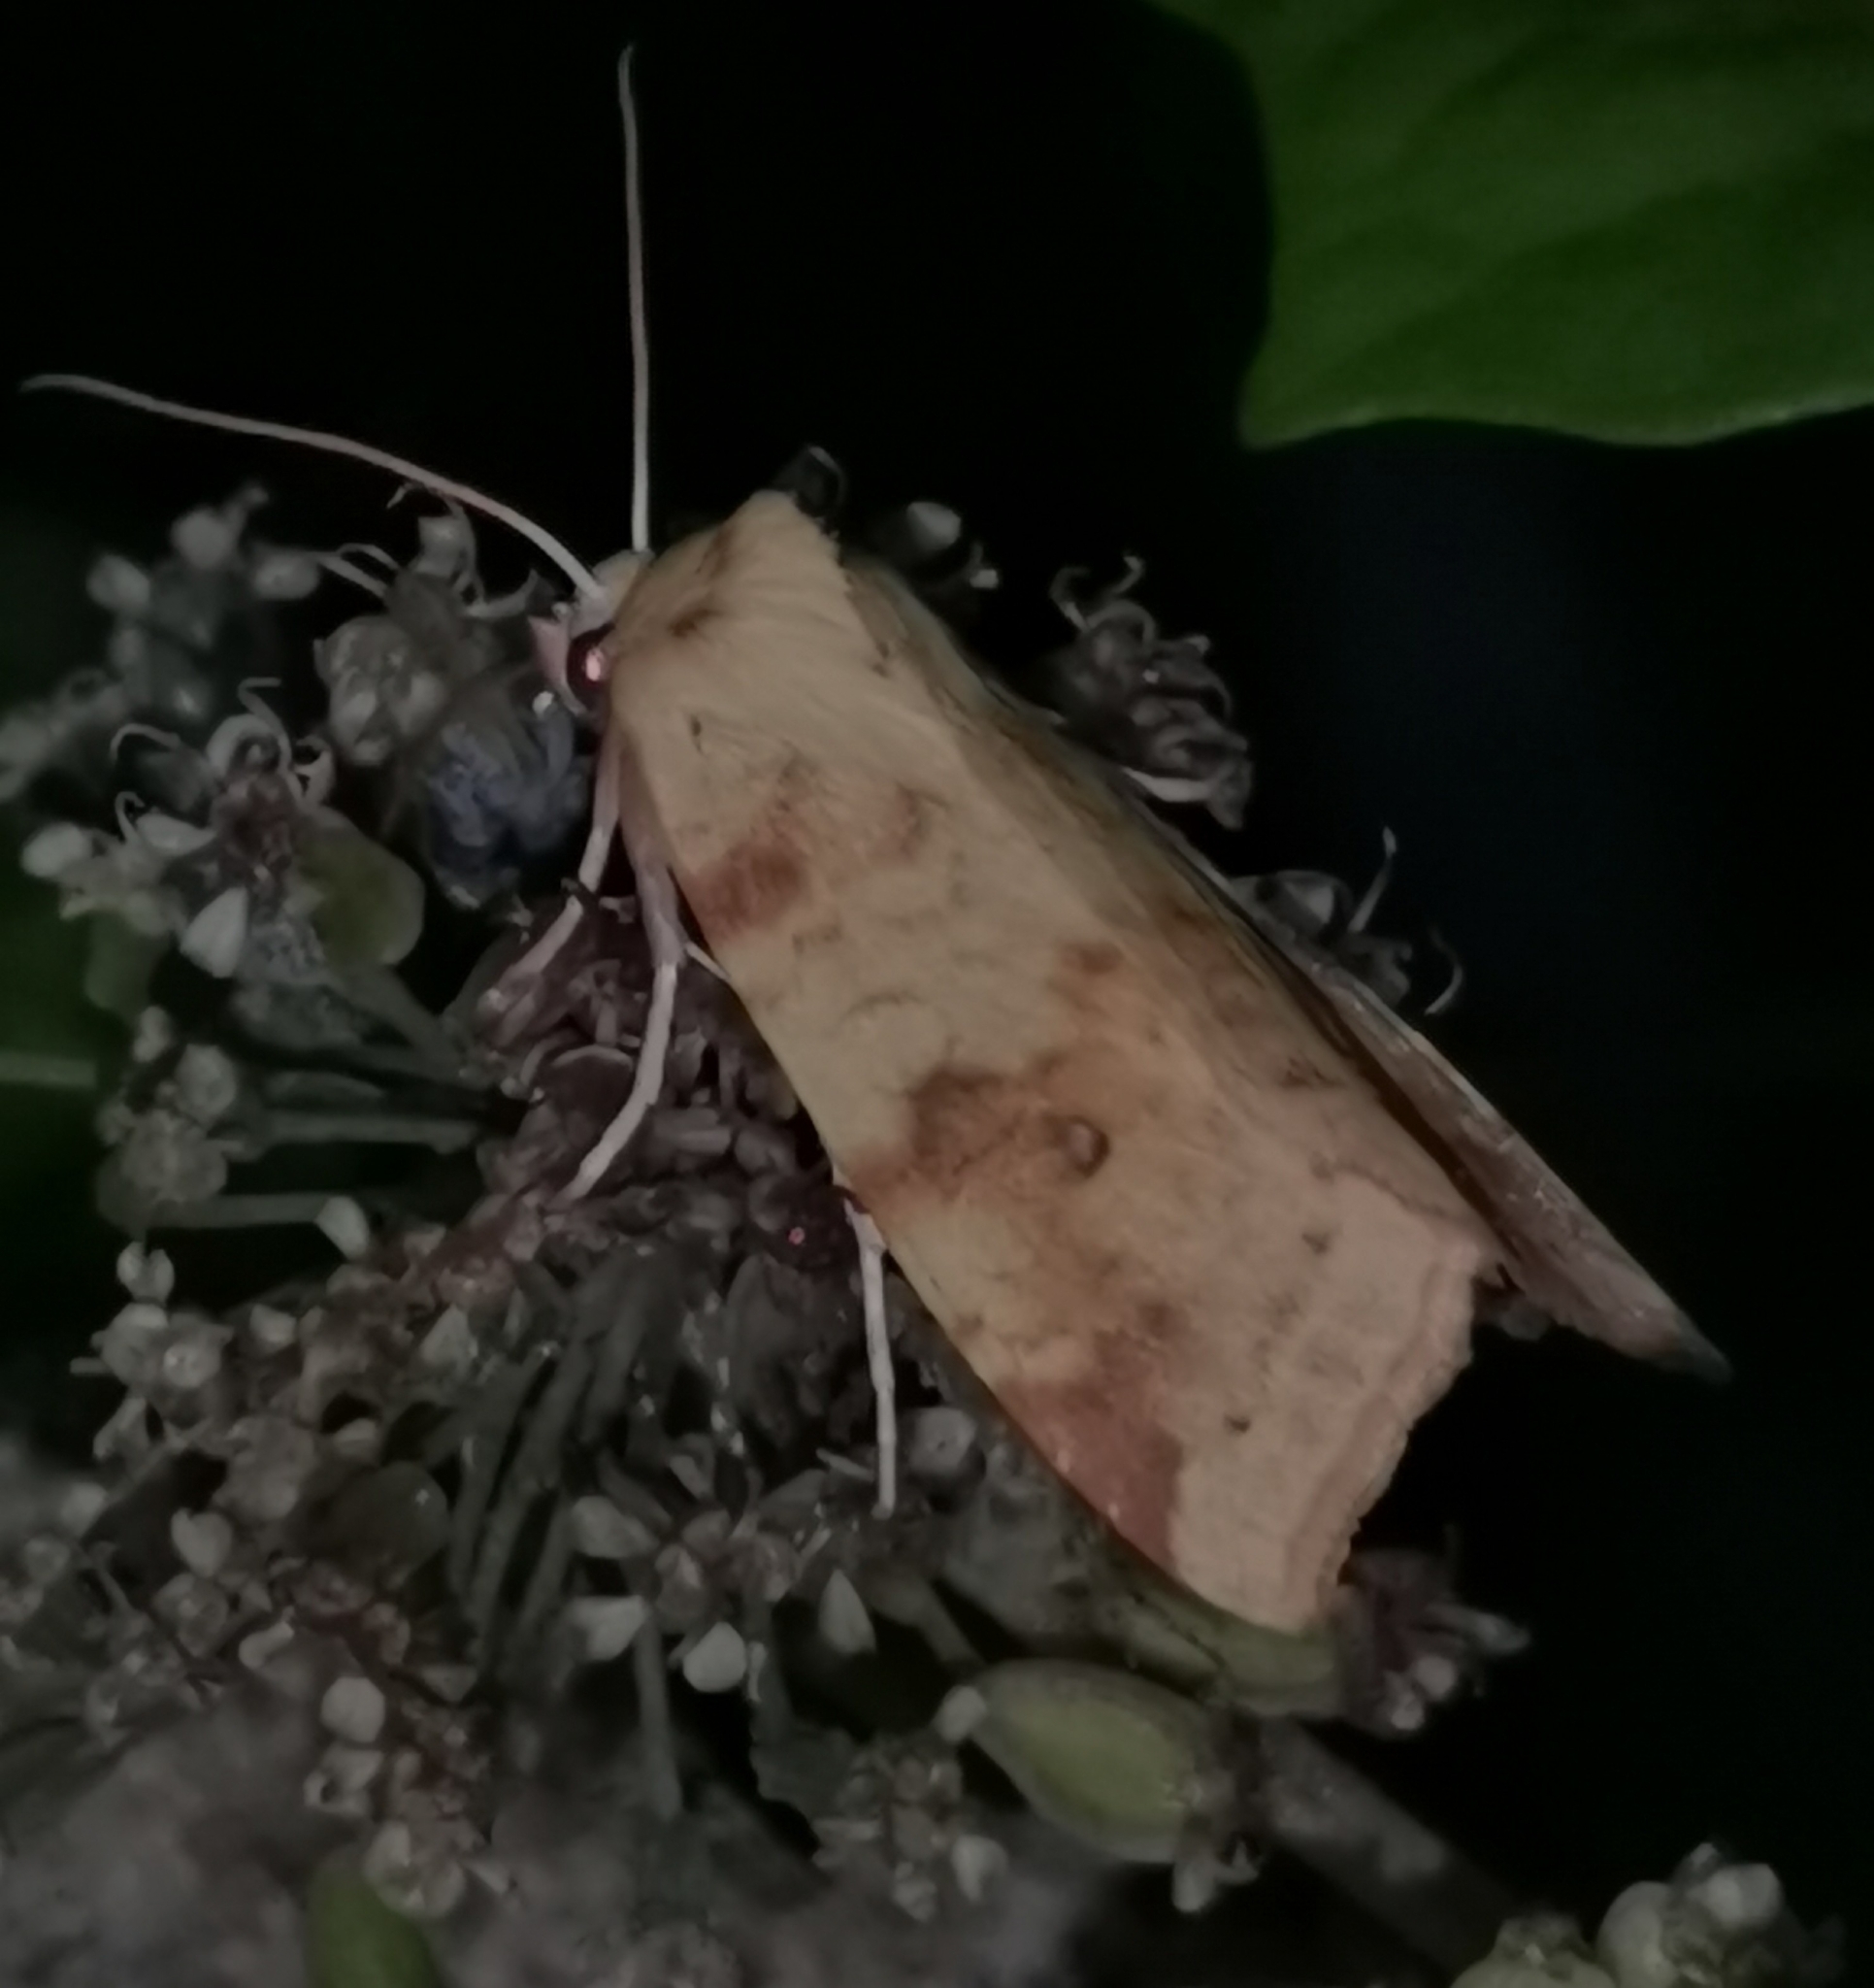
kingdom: Animalia
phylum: Arthropoda
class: Insecta
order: Lepidoptera
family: Noctuidae
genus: Xanthia
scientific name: Xanthia icteritia
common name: The sallow
